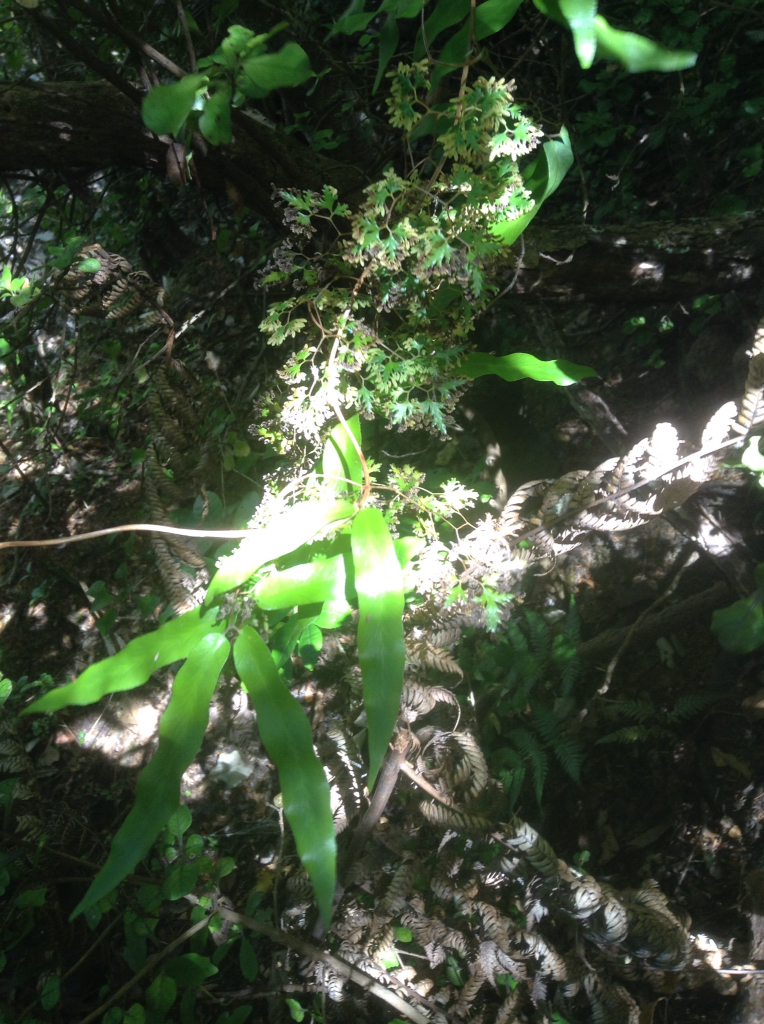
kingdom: Plantae
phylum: Tracheophyta
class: Polypodiopsida
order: Schizaeales
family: Lygodiaceae
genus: Lygodium
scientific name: Lygodium articulatum
